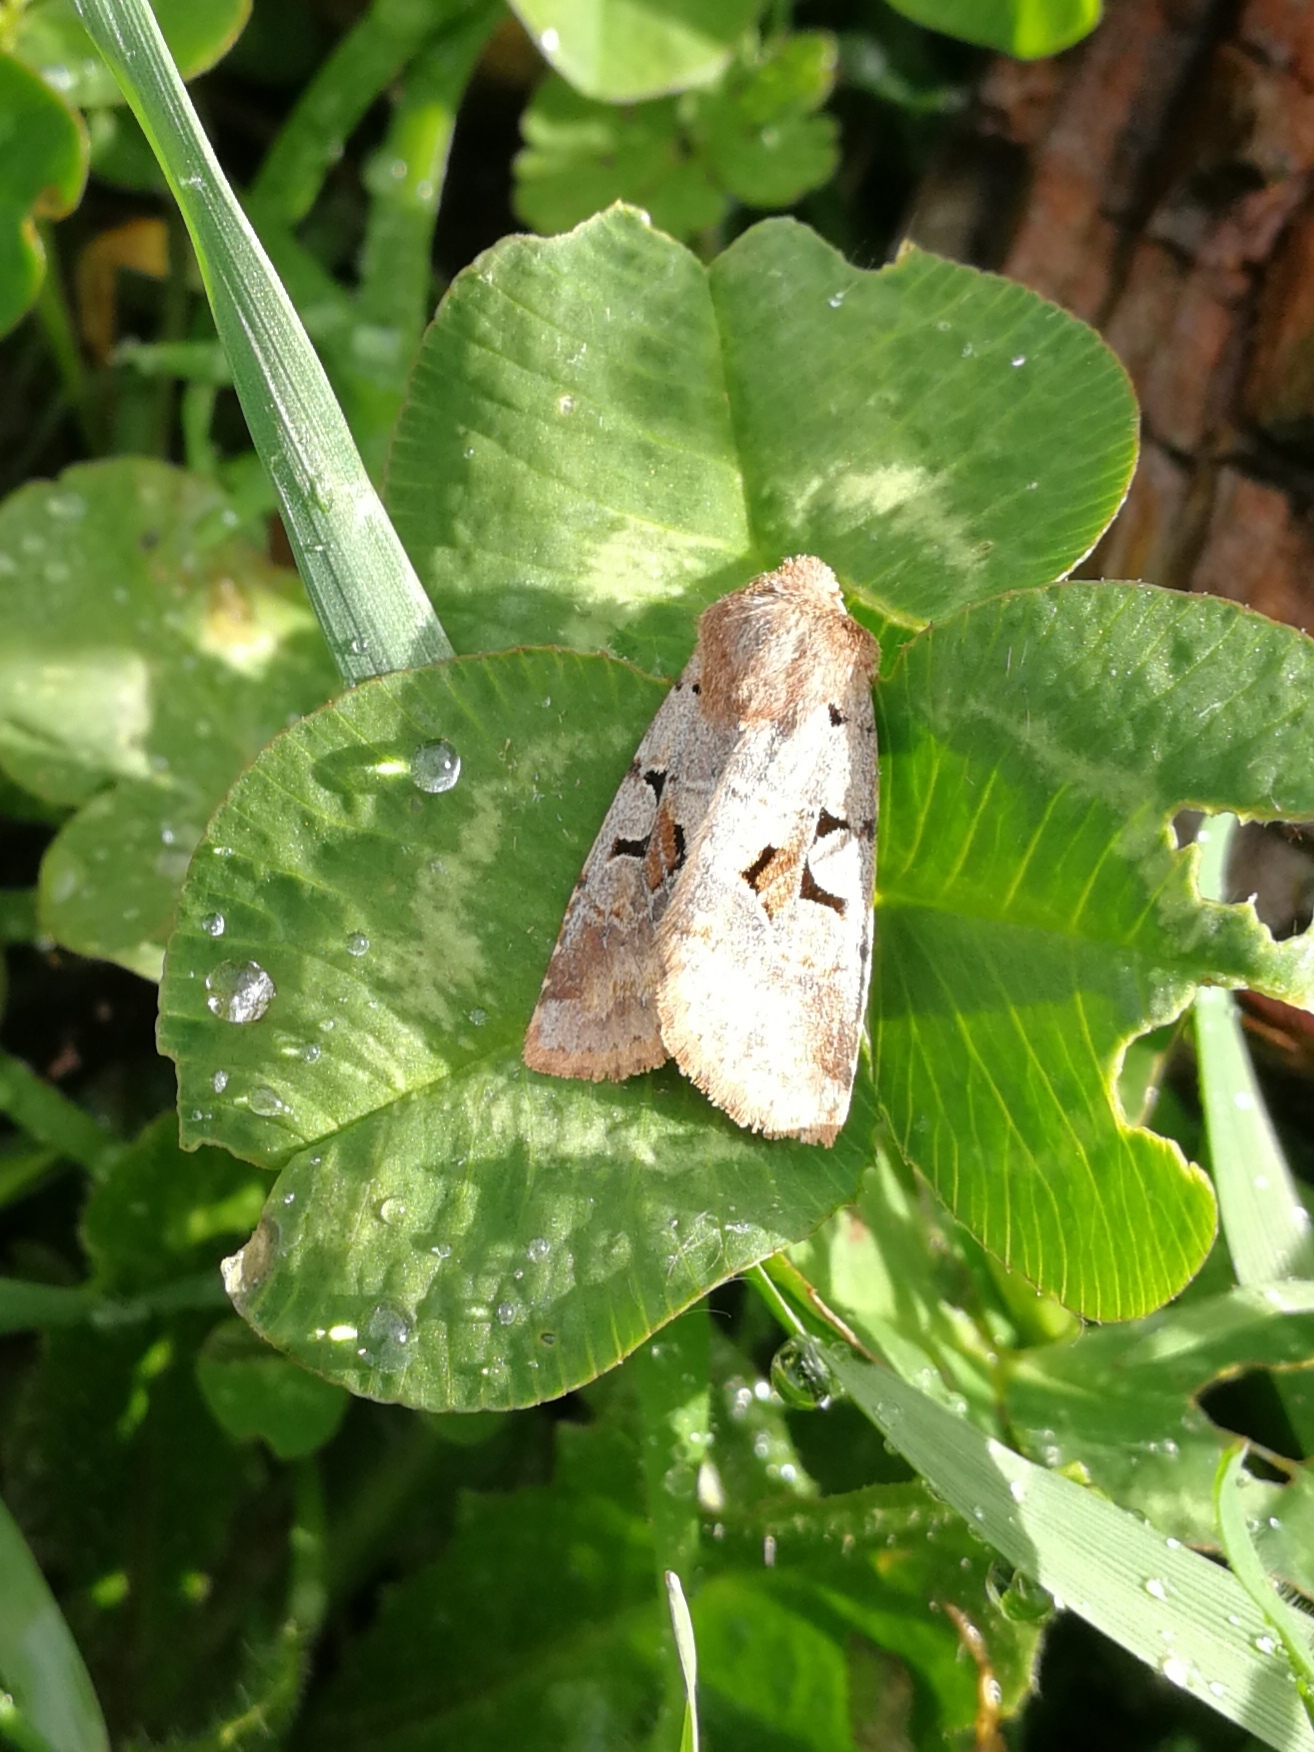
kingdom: Animalia
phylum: Arthropoda
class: Insecta
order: Lepidoptera
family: Noctuidae
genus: Orthosia
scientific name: Orthosia gothica
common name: Hebrew character
